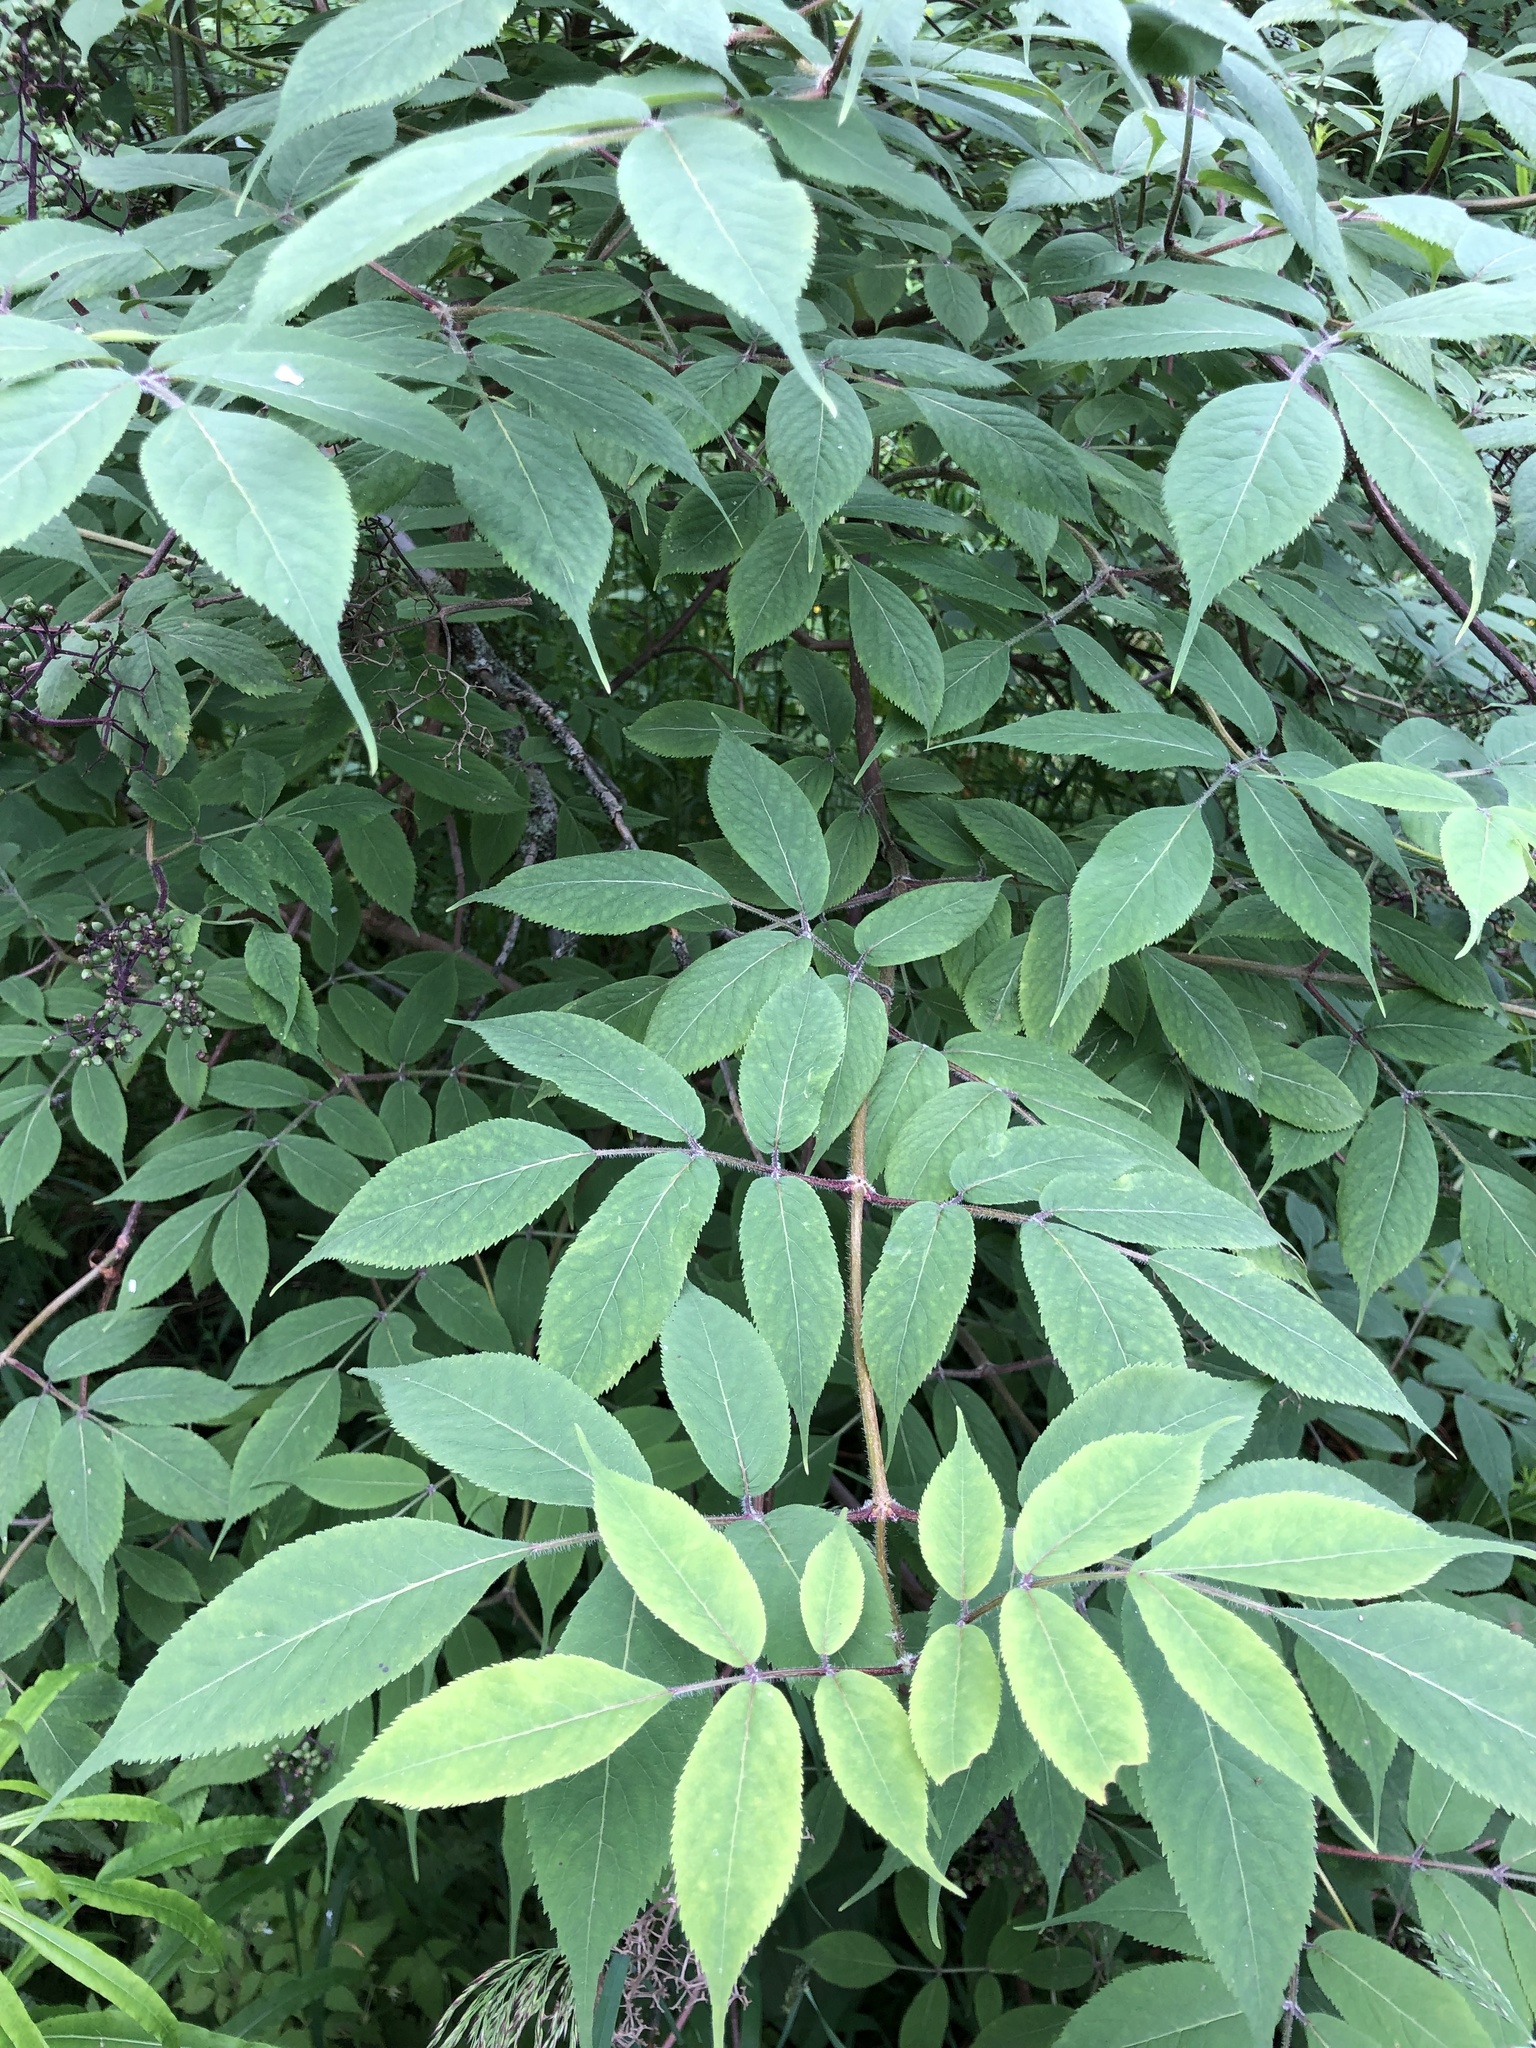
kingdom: Plantae
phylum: Tracheophyta
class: Magnoliopsida
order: Dipsacales
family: Viburnaceae
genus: Sambucus
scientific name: Sambucus sibirica
